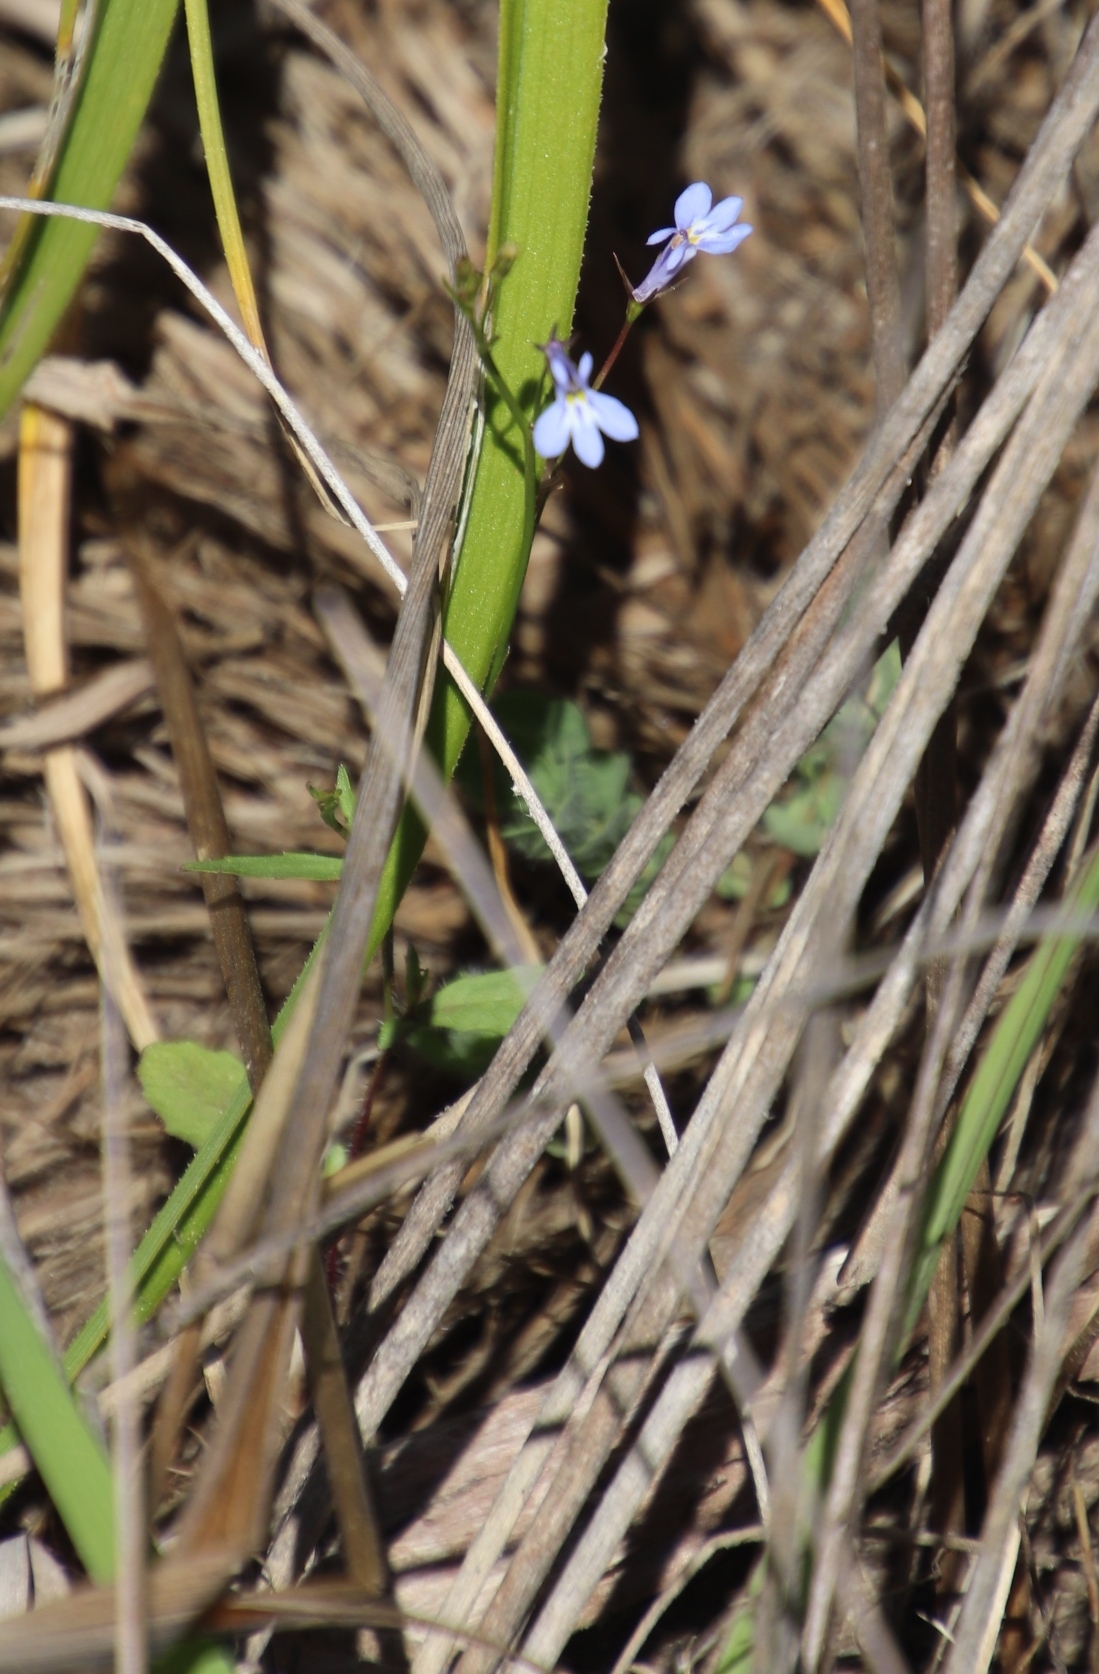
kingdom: Plantae
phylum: Tracheophyta
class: Magnoliopsida
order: Asterales
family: Campanulaceae
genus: Lobelia
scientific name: Lobelia erinus
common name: Edging lobelia
